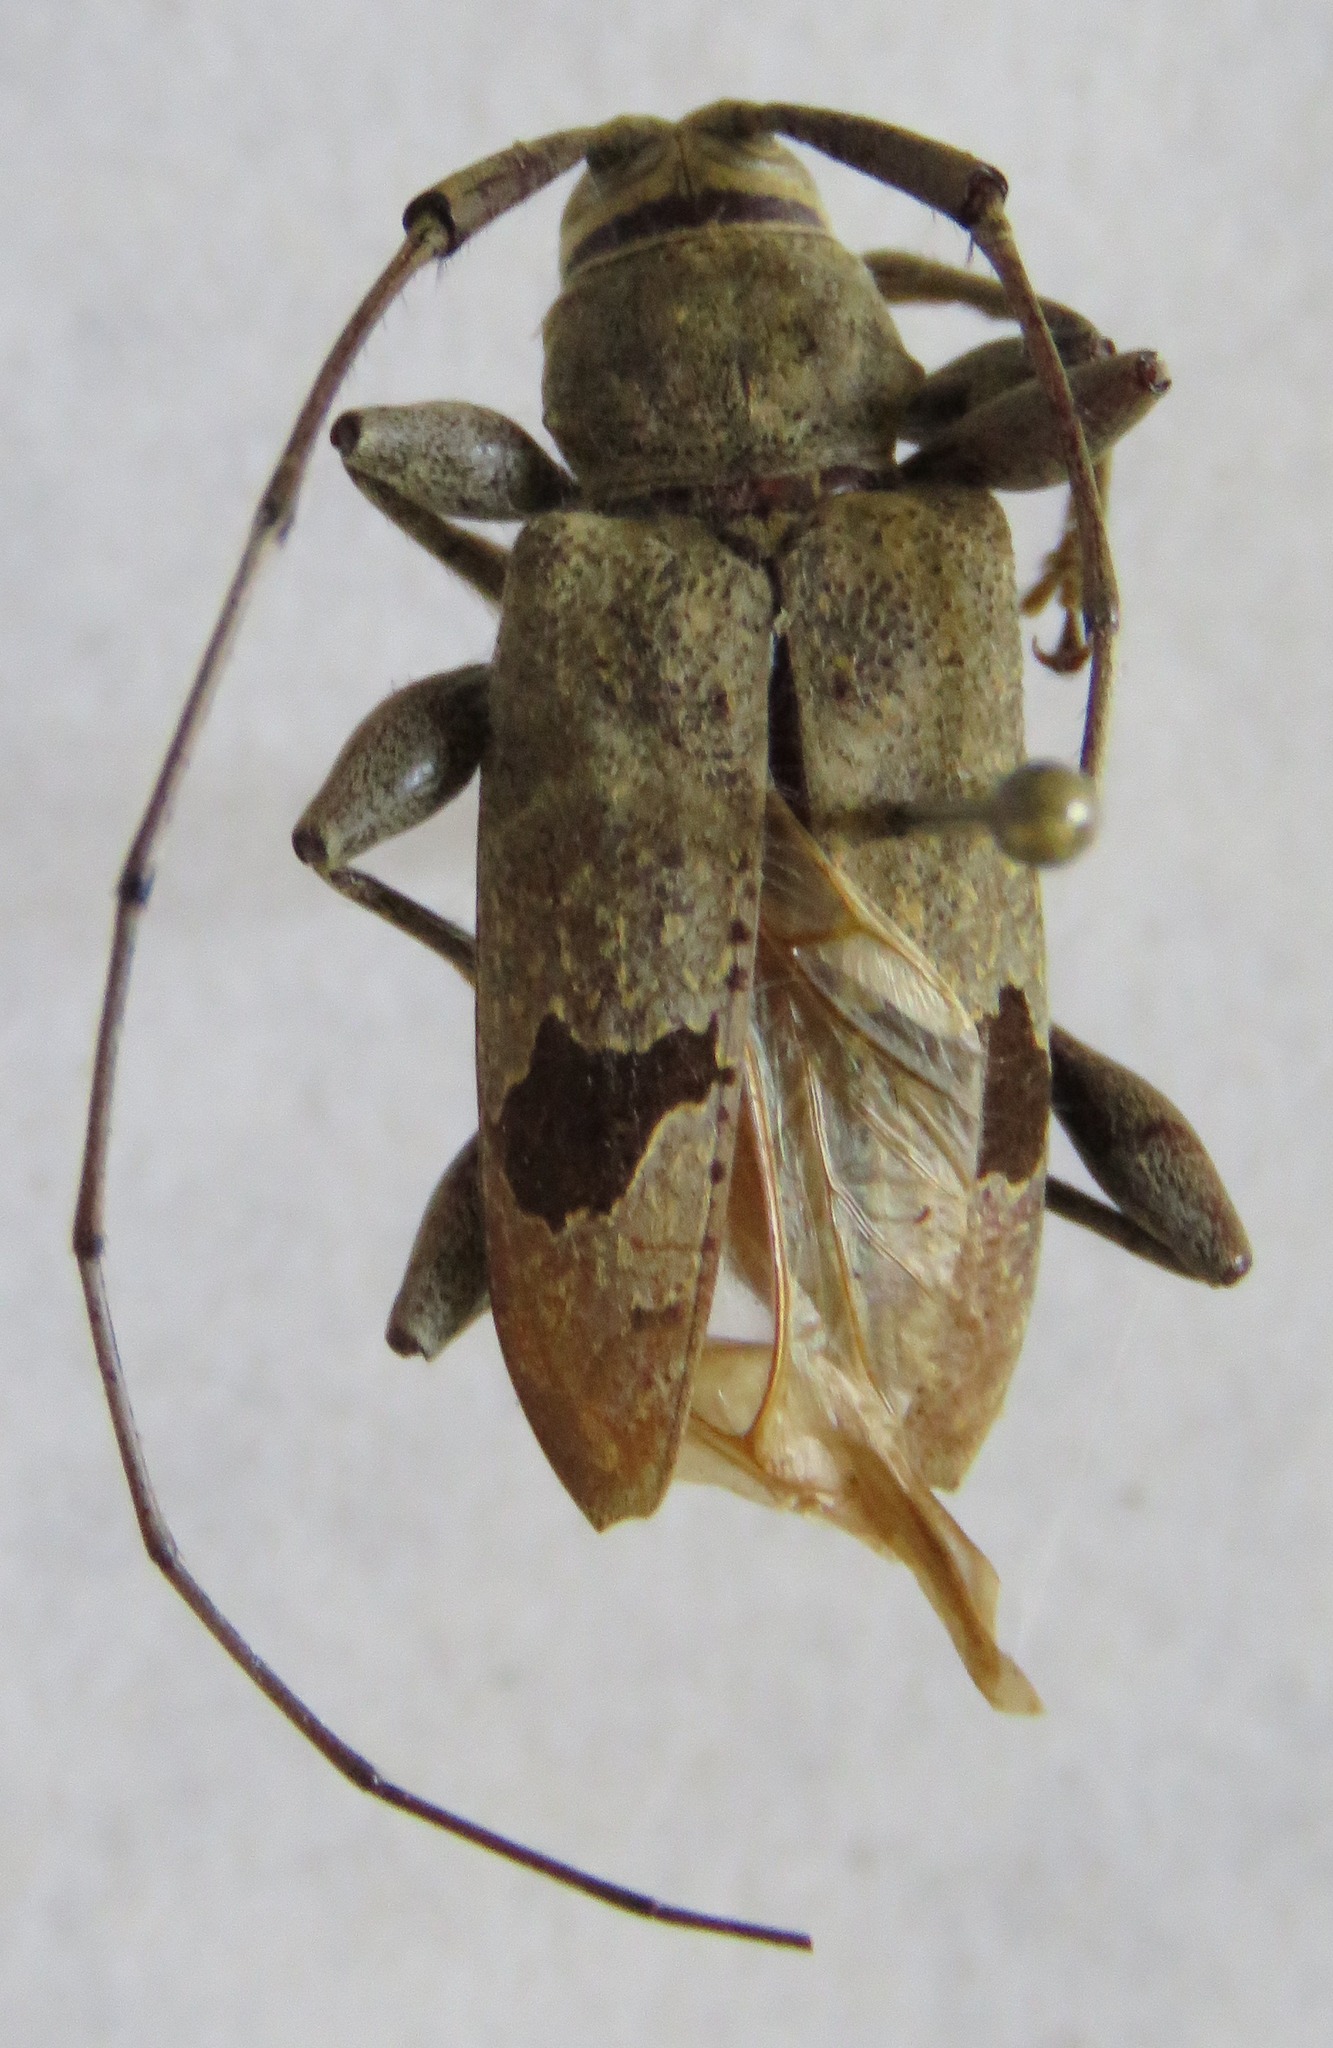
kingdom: Animalia
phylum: Arthropoda
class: Insecta
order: Coleoptera
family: Cerambycidae
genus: Hylettus
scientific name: Hylettus coenobita
